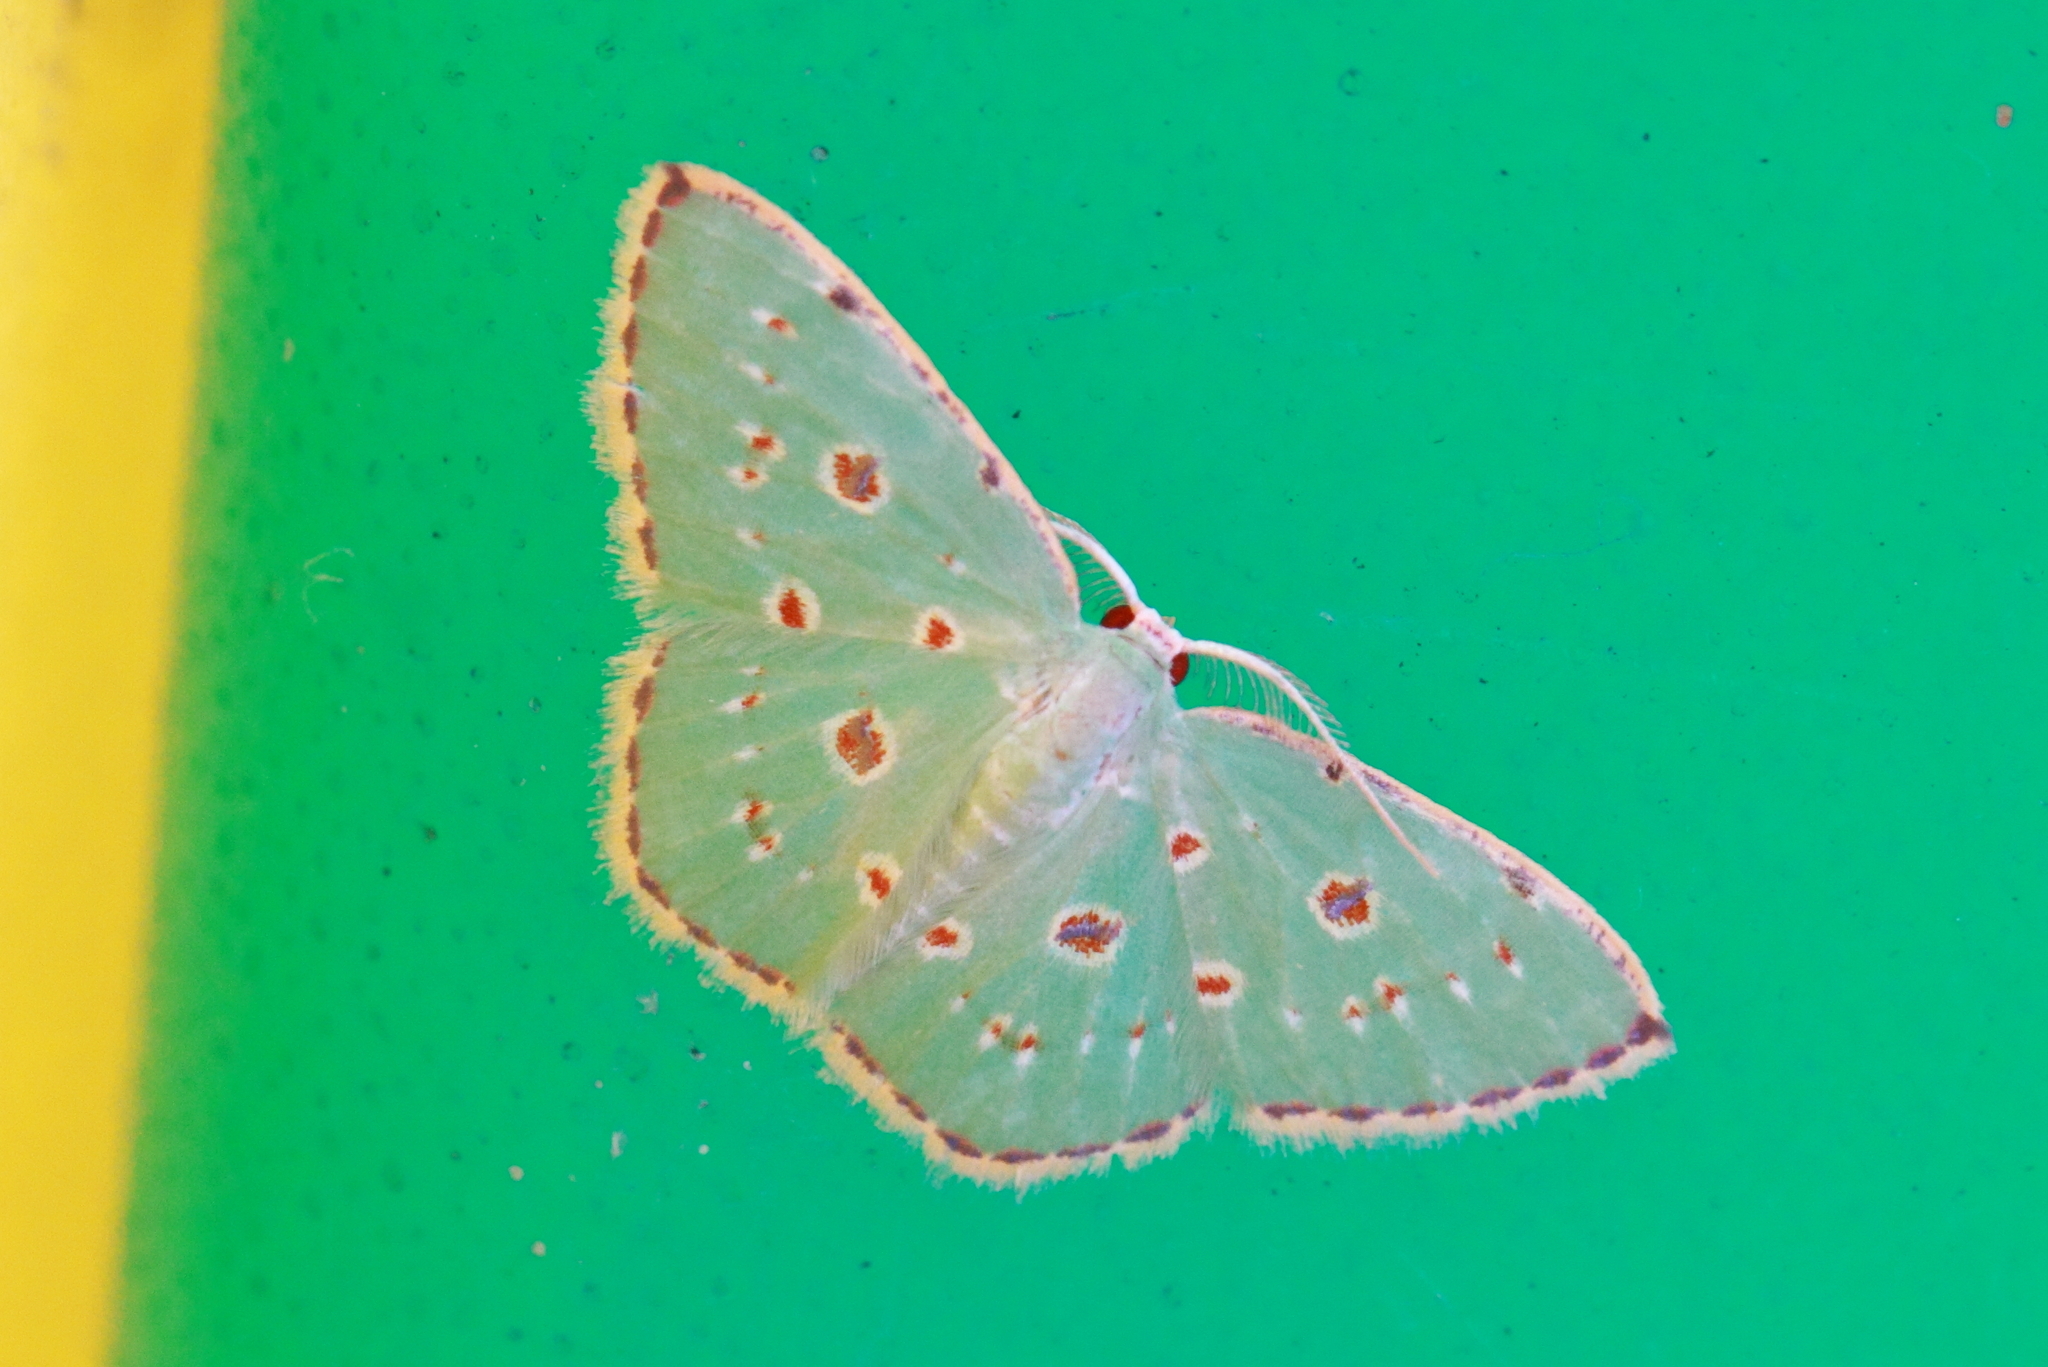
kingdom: Animalia
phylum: Arthropoda
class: Insecta
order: Lepidoptera
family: Geometridae
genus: Comostola
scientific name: Comostola laesaria
